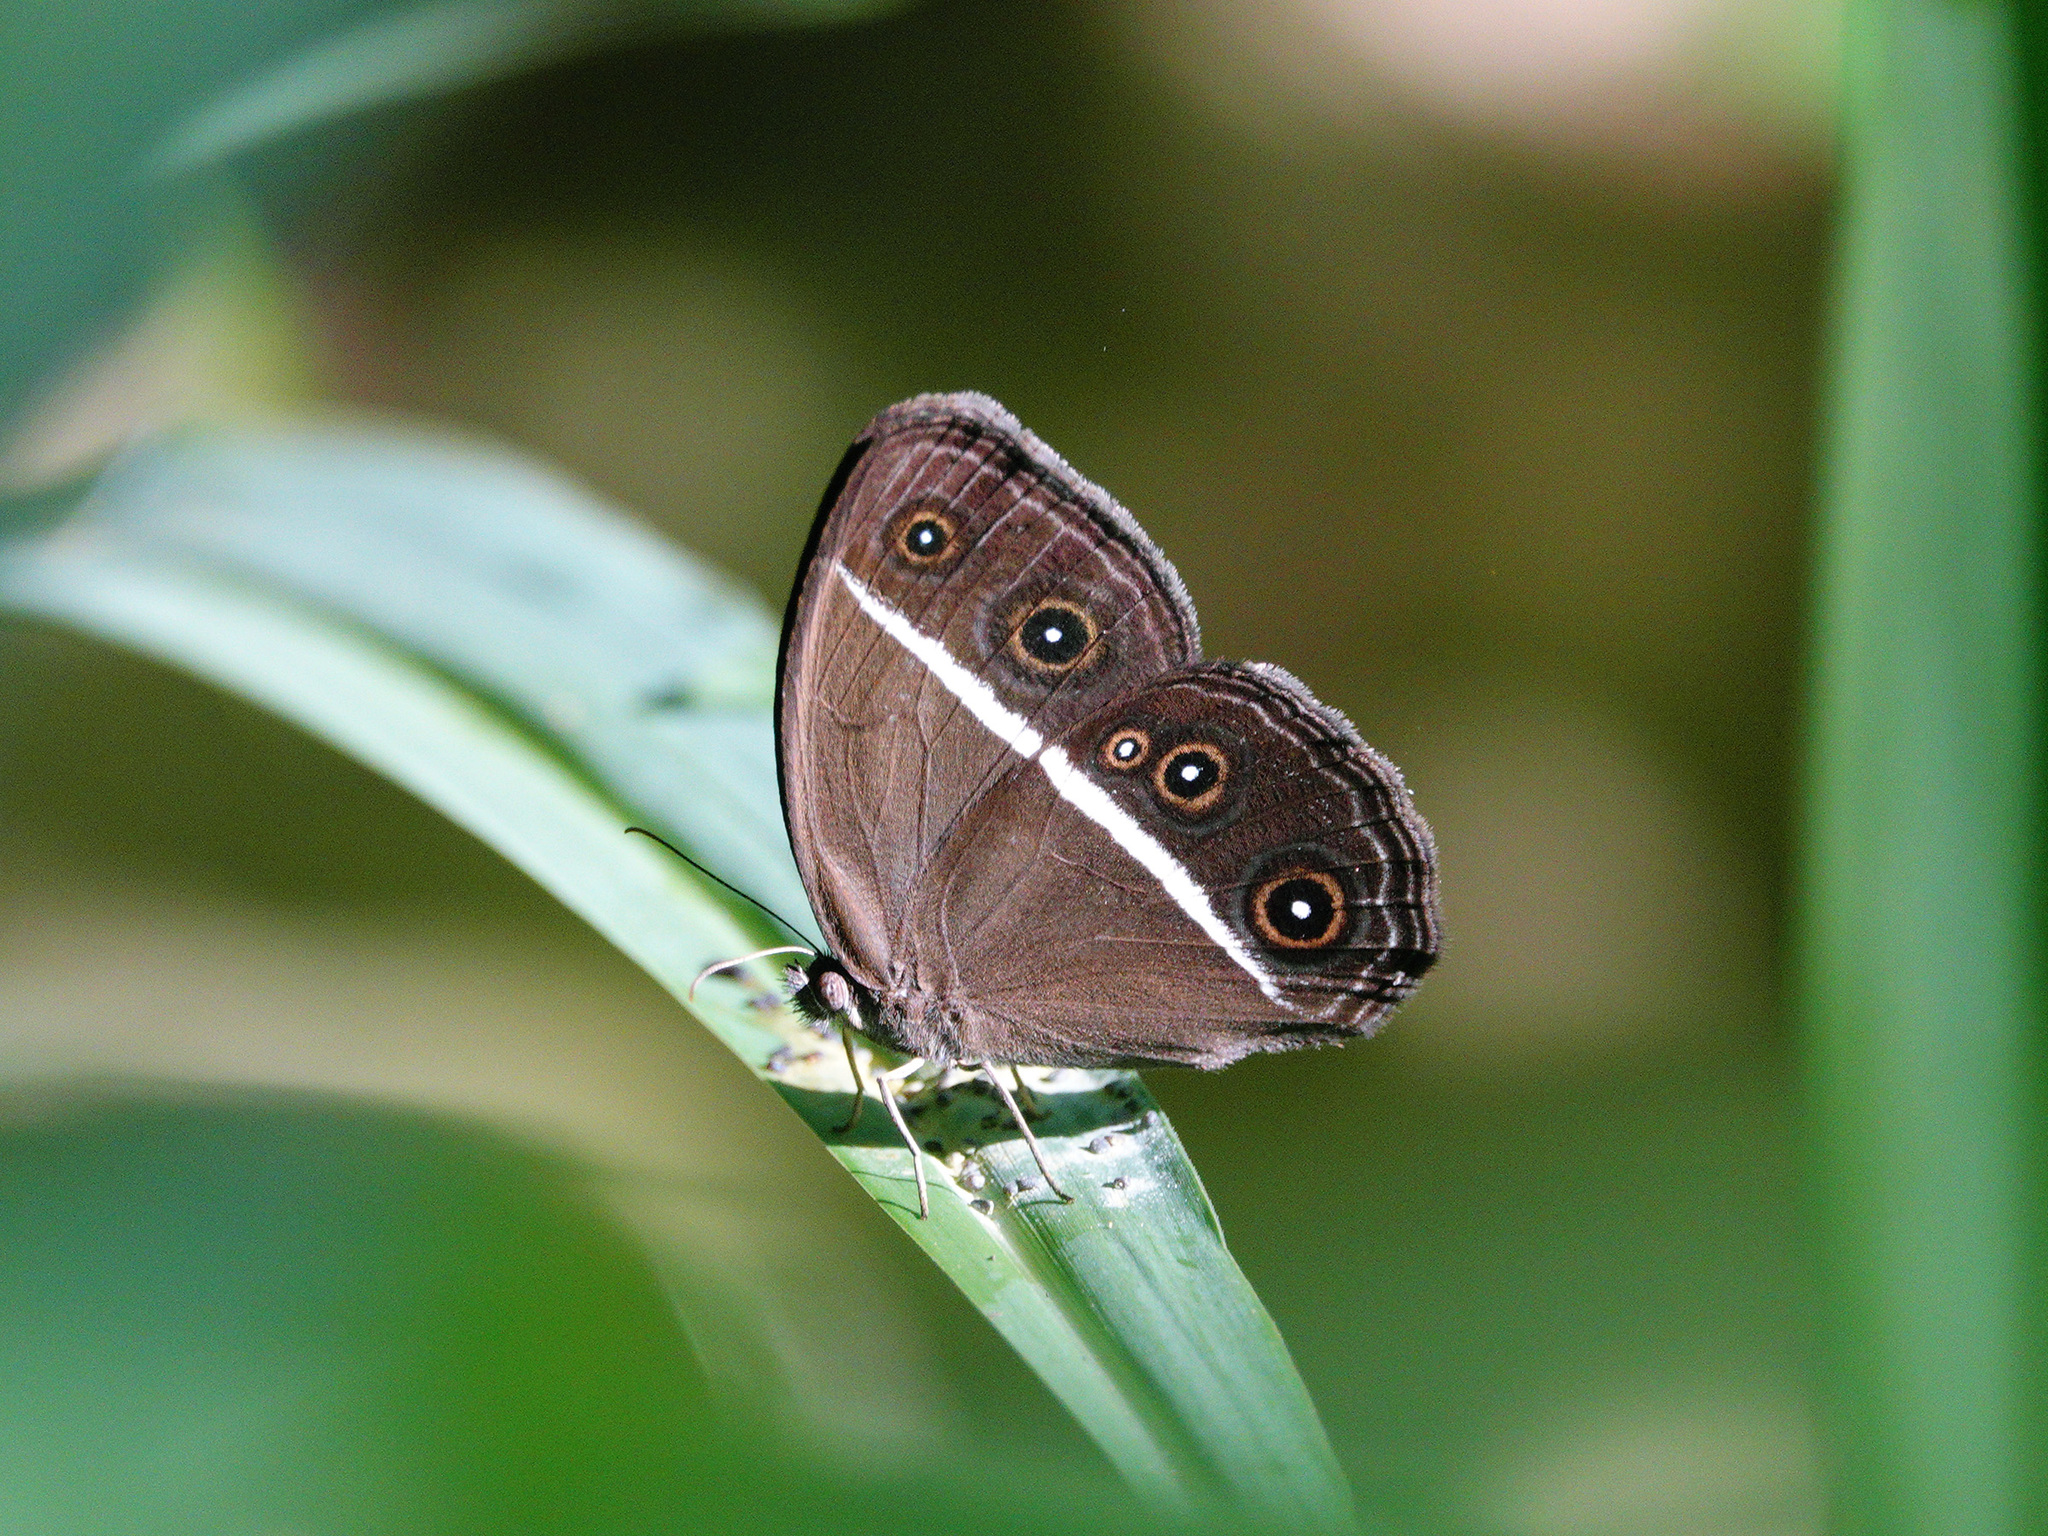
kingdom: Animalia
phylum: Arthropoda
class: Insecta
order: Lepidoptera
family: Nymphalidae
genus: Orsotriaena
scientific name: Orsotriaena medus
